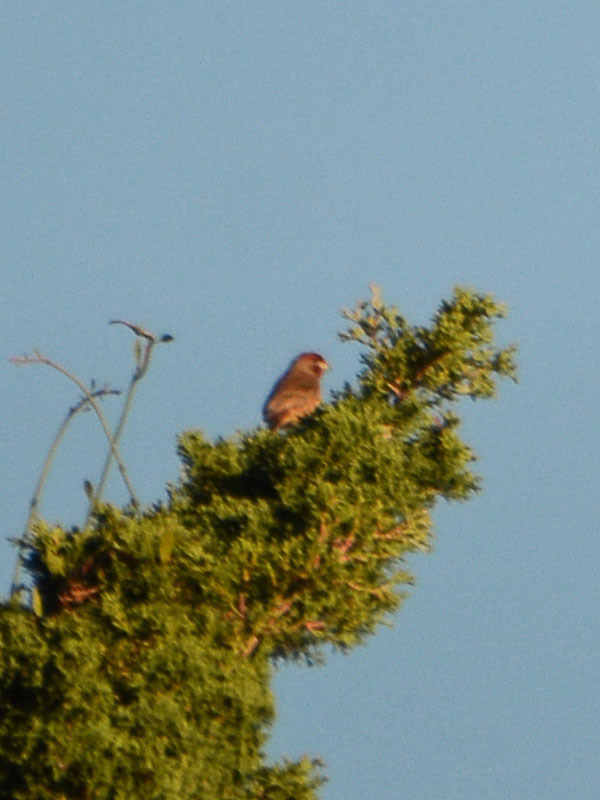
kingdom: Animalia
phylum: Chordata
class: Aves
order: Passeriformes
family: Fringillidae
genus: Haemorhous
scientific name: Haemorhous mexicanus
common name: House finch
